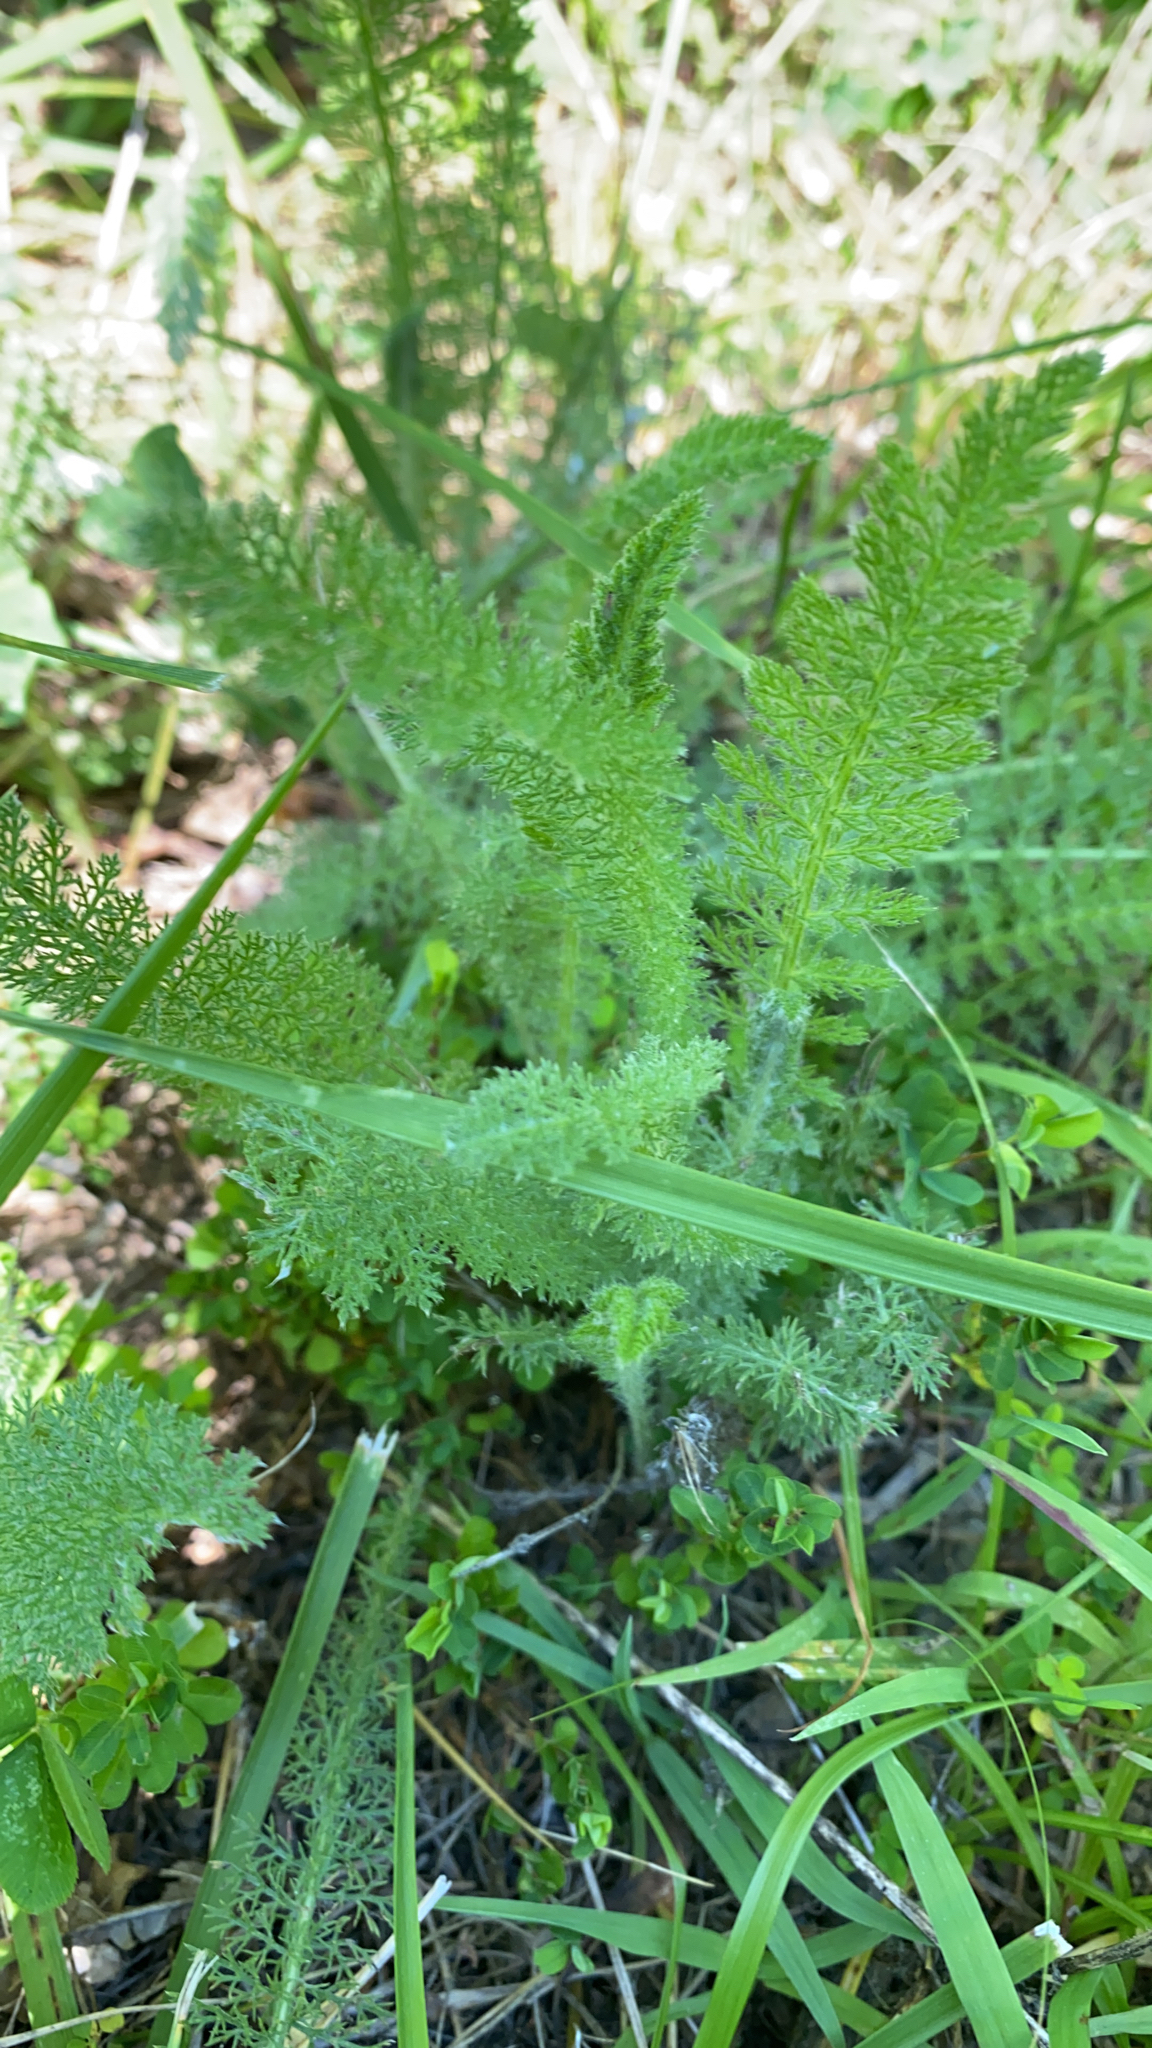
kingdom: Plantae
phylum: Tracheophyta
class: Magnoliopsida
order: Asterales
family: Asteraceae
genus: Achillea
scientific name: Achillea millefolium
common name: Yarrow
